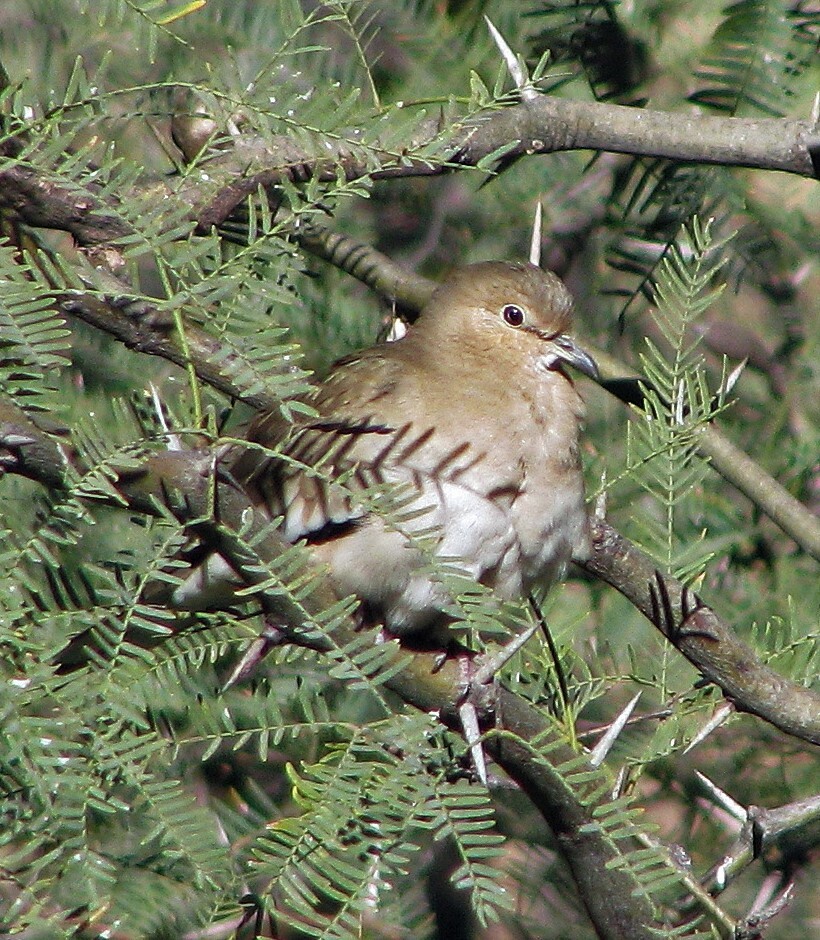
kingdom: Animalia
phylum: Chordata
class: Aves
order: Columbiformes
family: Columbidae
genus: Columbina
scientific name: Columbina picui
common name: Picui ground dove
